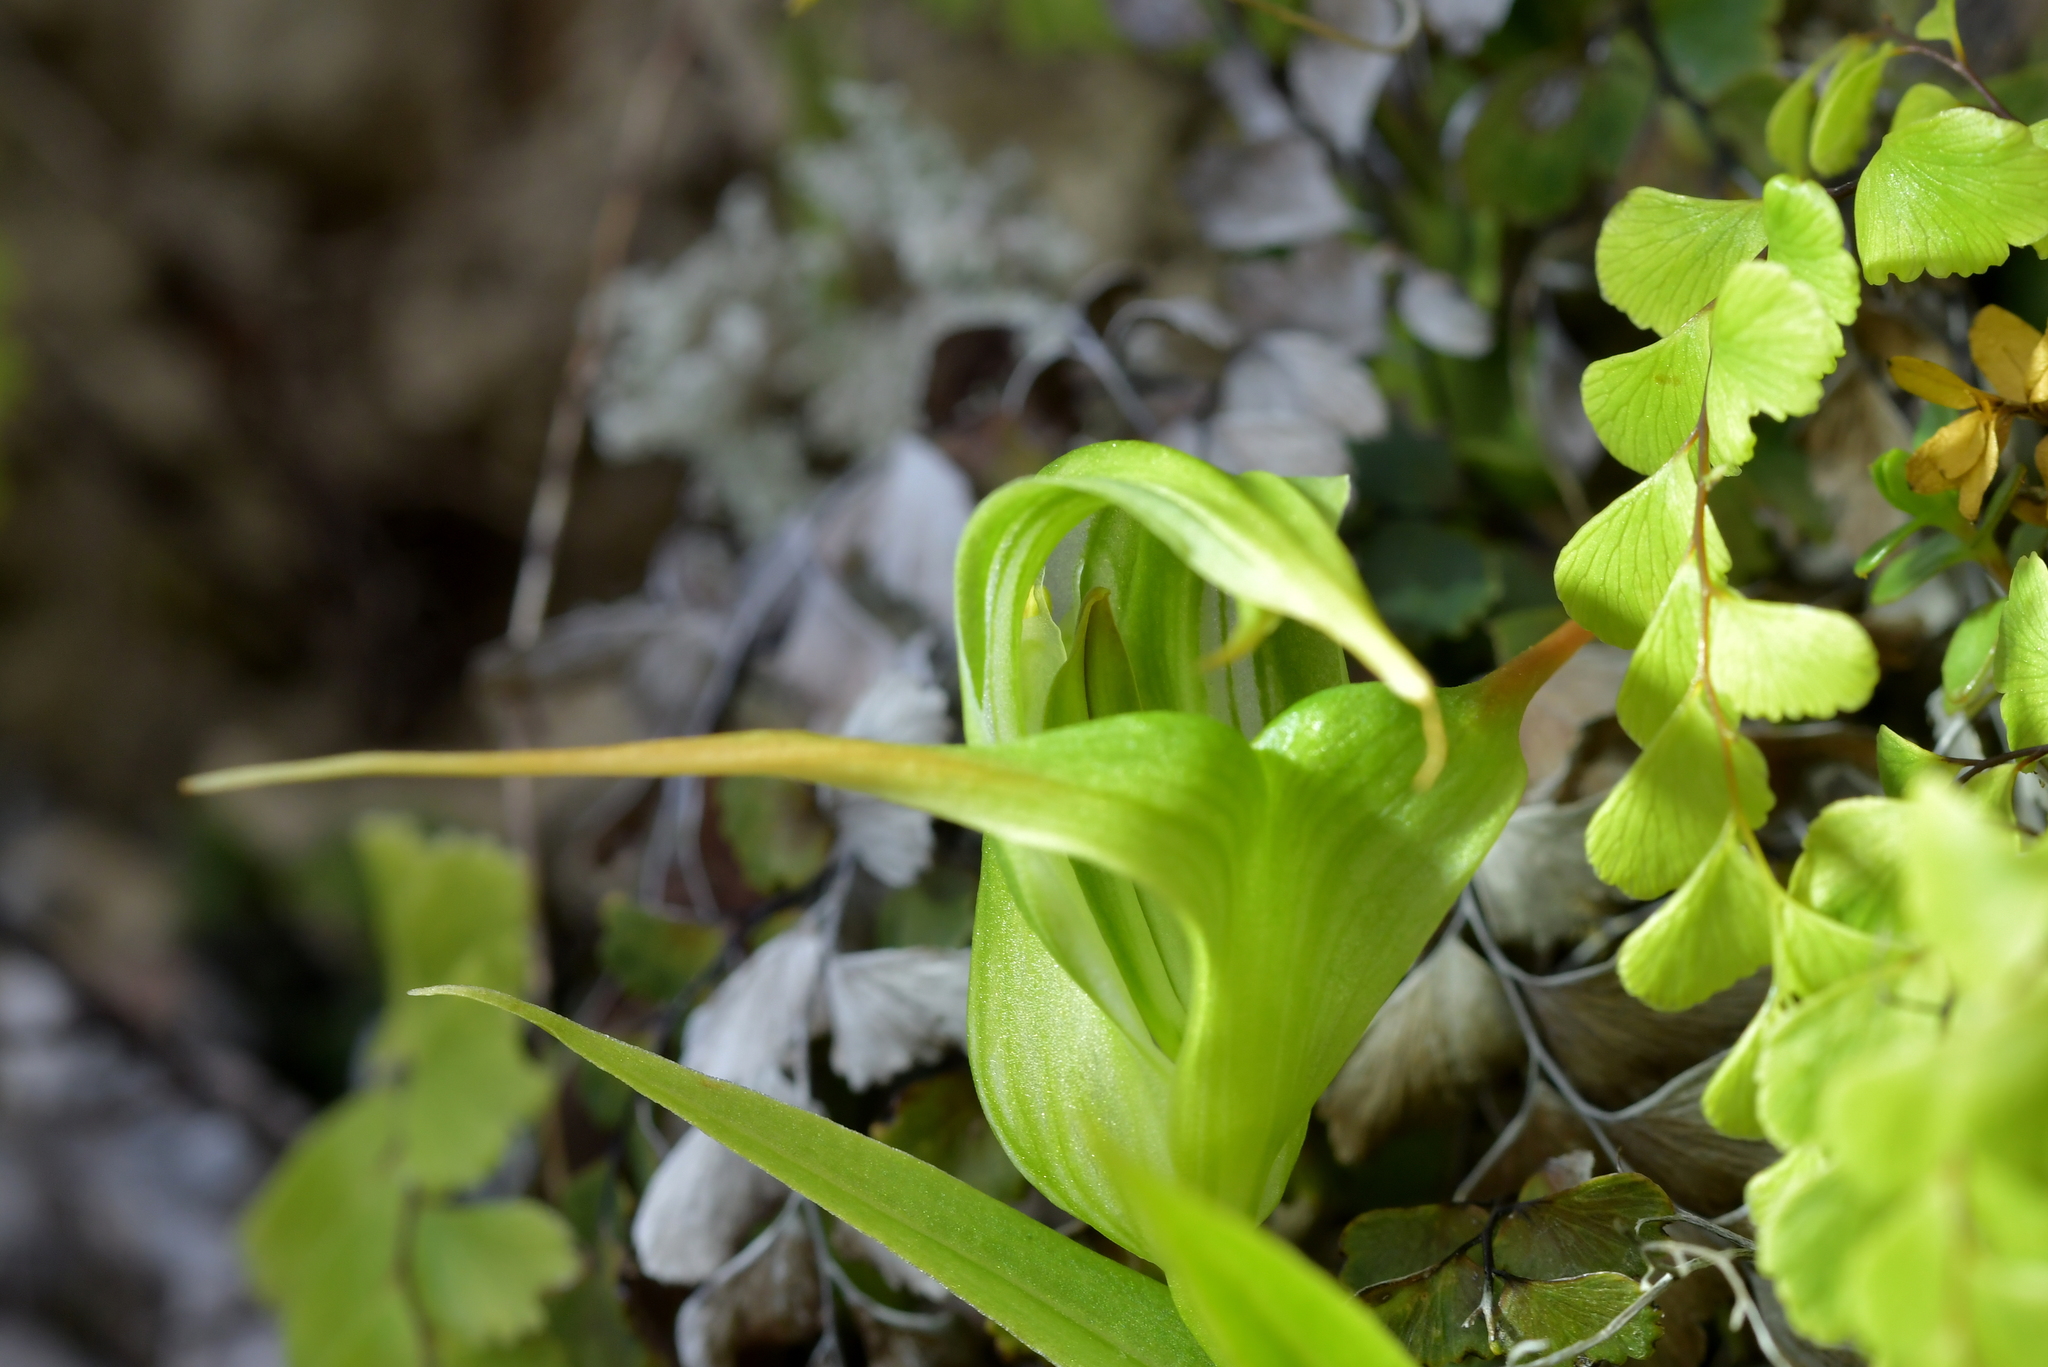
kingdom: Plantae
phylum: Tracheophyta
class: Liliopsida
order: Asparagales
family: Orchidaceae
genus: Pterostylis
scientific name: Pterostylis banksii
